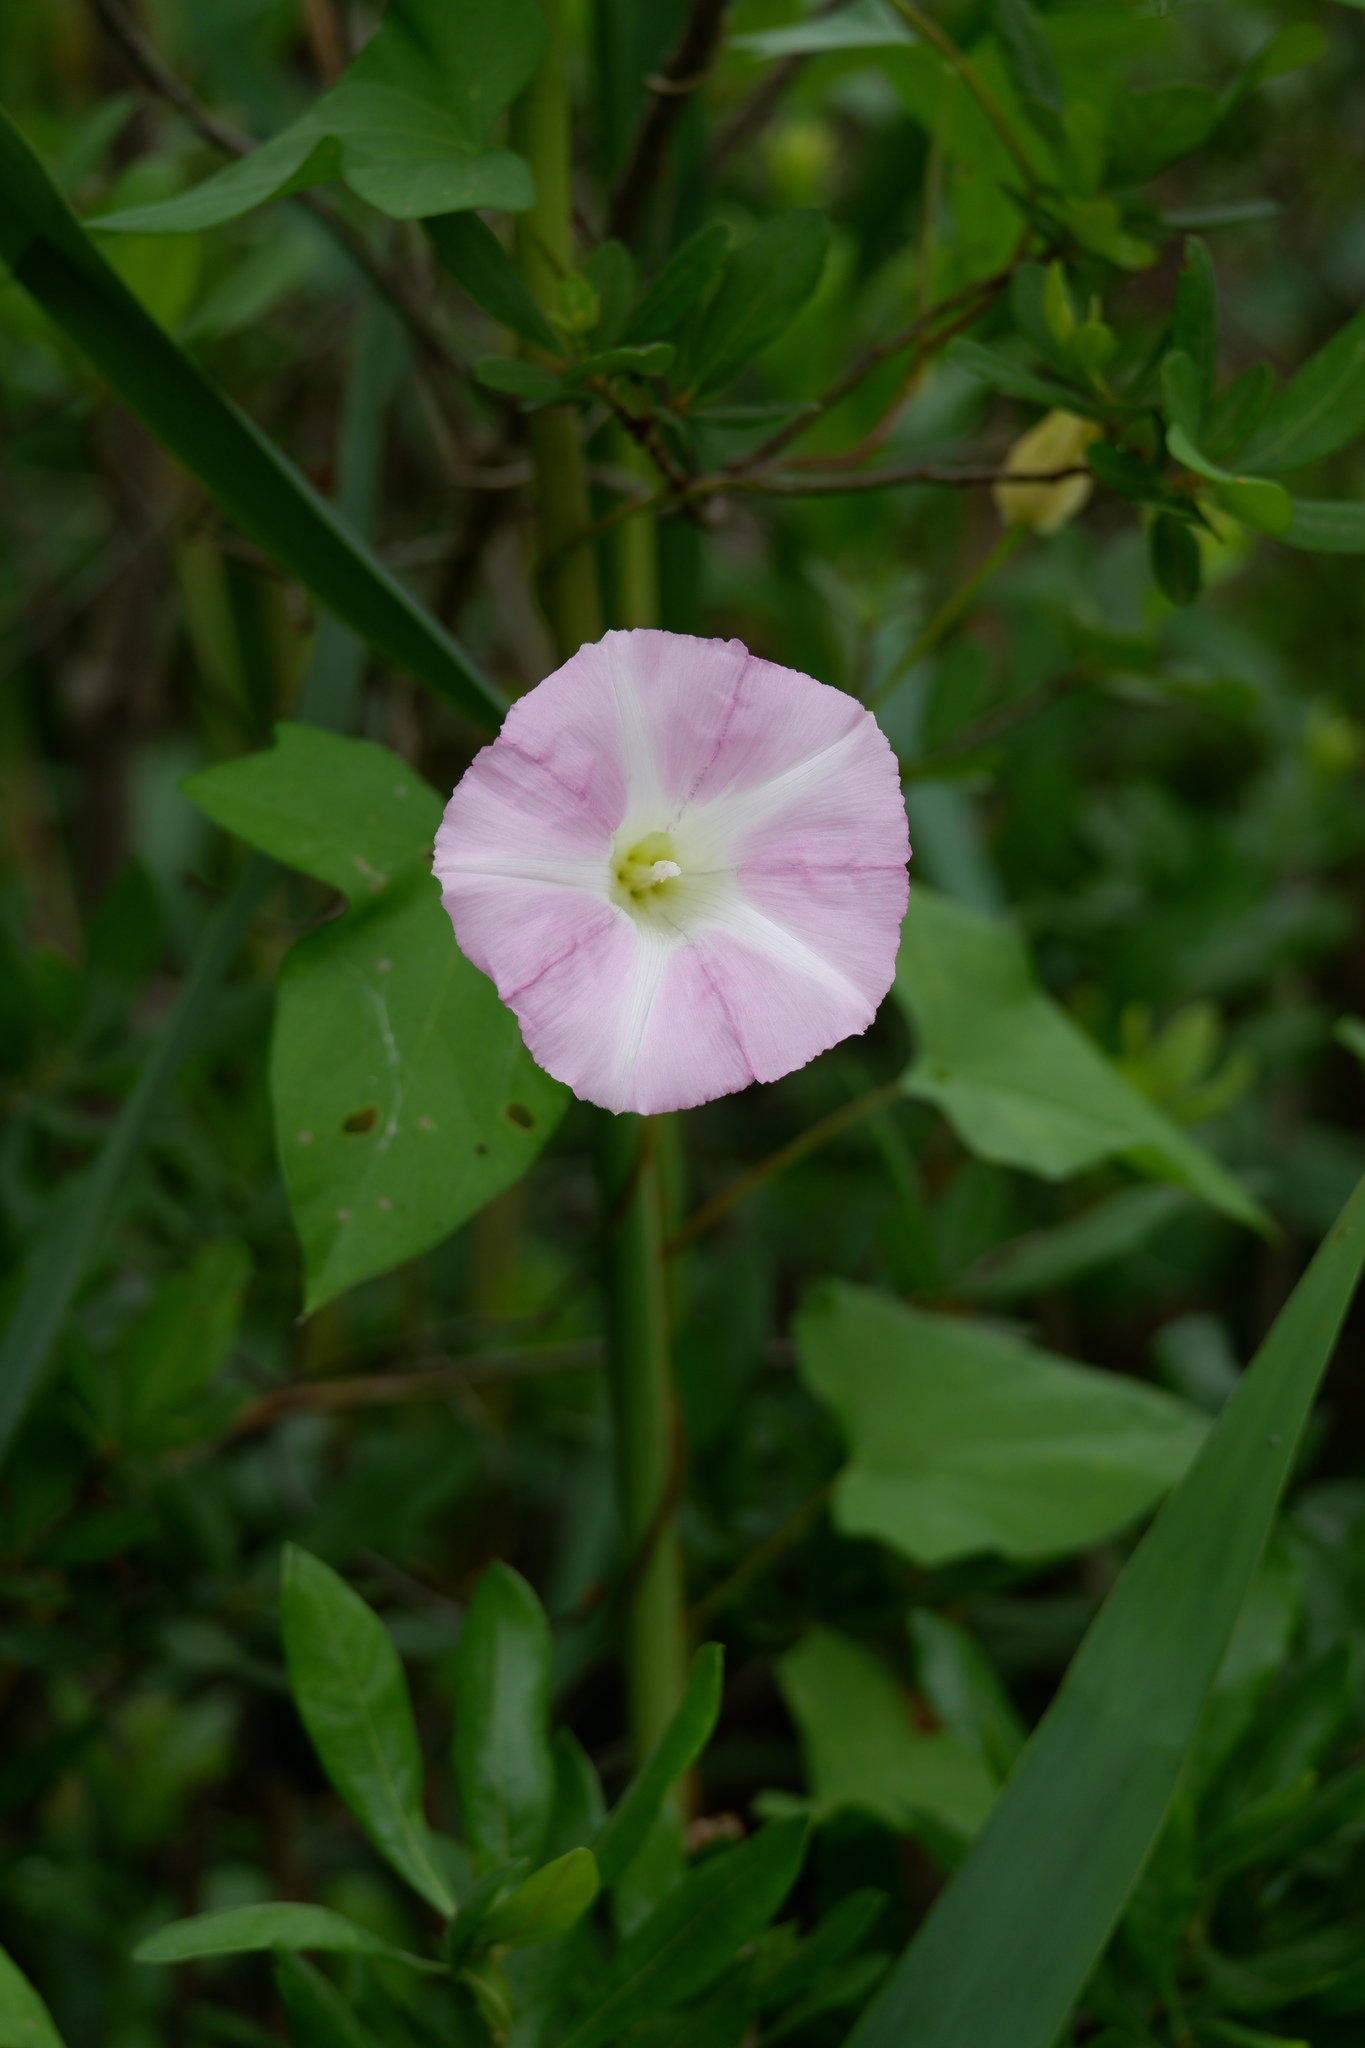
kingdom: Plantae
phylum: Tracheophyta
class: Magnoliopsida
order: Solanales
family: Convolvulaceae
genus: Calystegia
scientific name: Calystegia sepium
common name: Hedge bindweed
